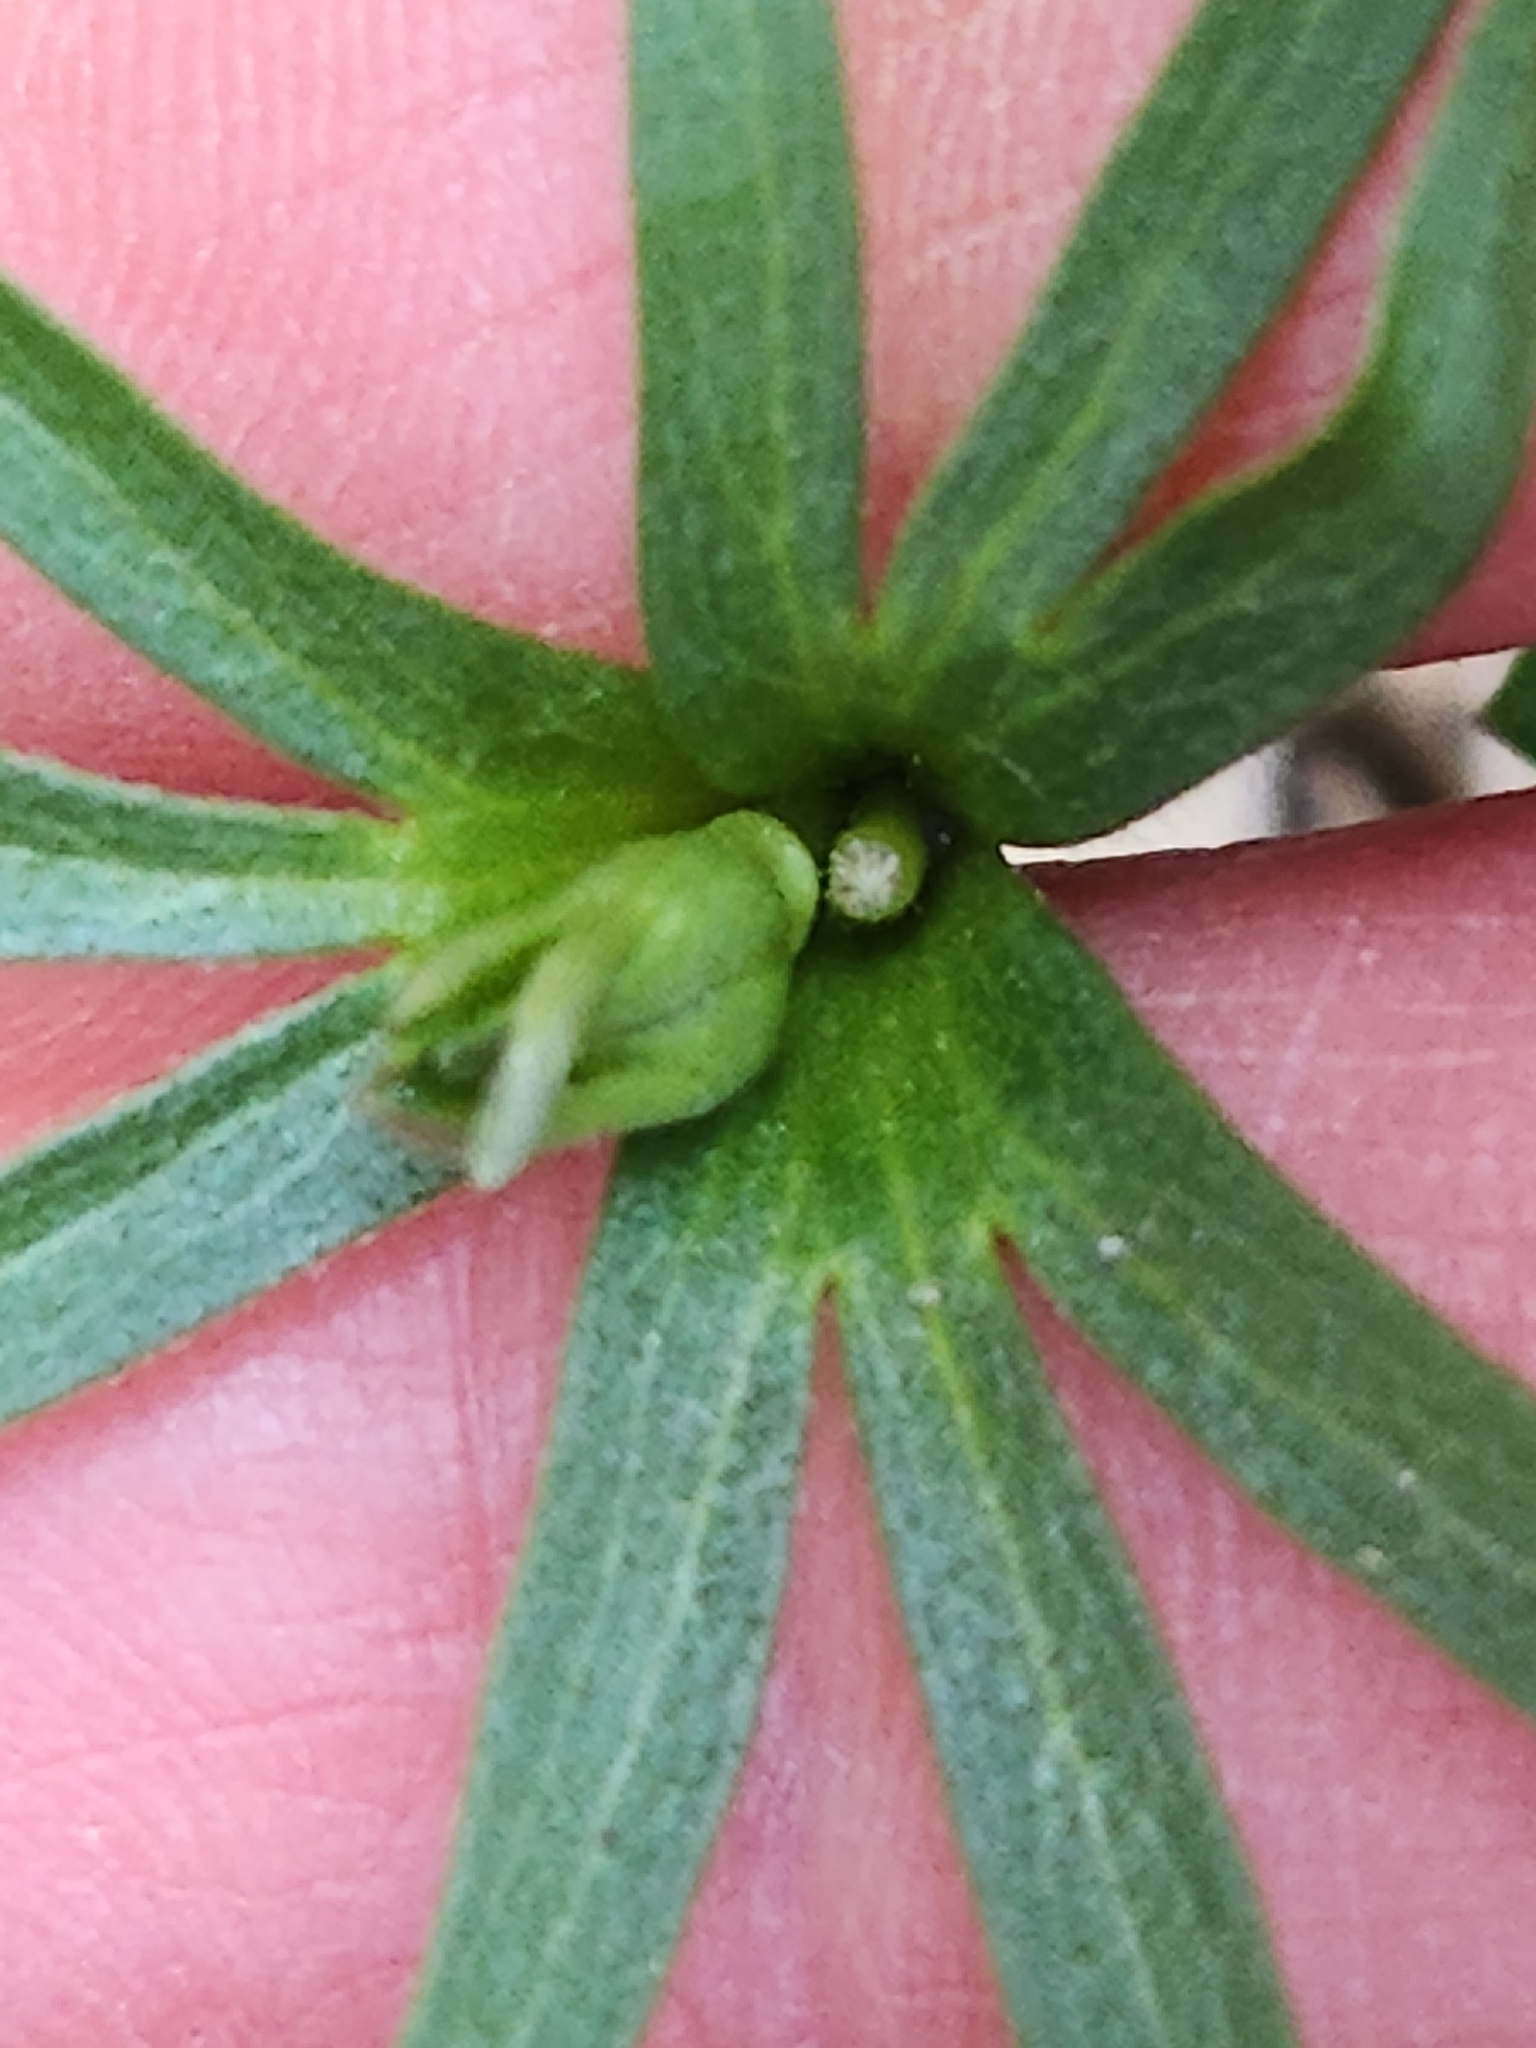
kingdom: Plantae
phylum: Tracheophyta
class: Magnoliopsida
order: Ranunculales
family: Ranunculaceae
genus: Anemone
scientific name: Anemone edwardsiana
